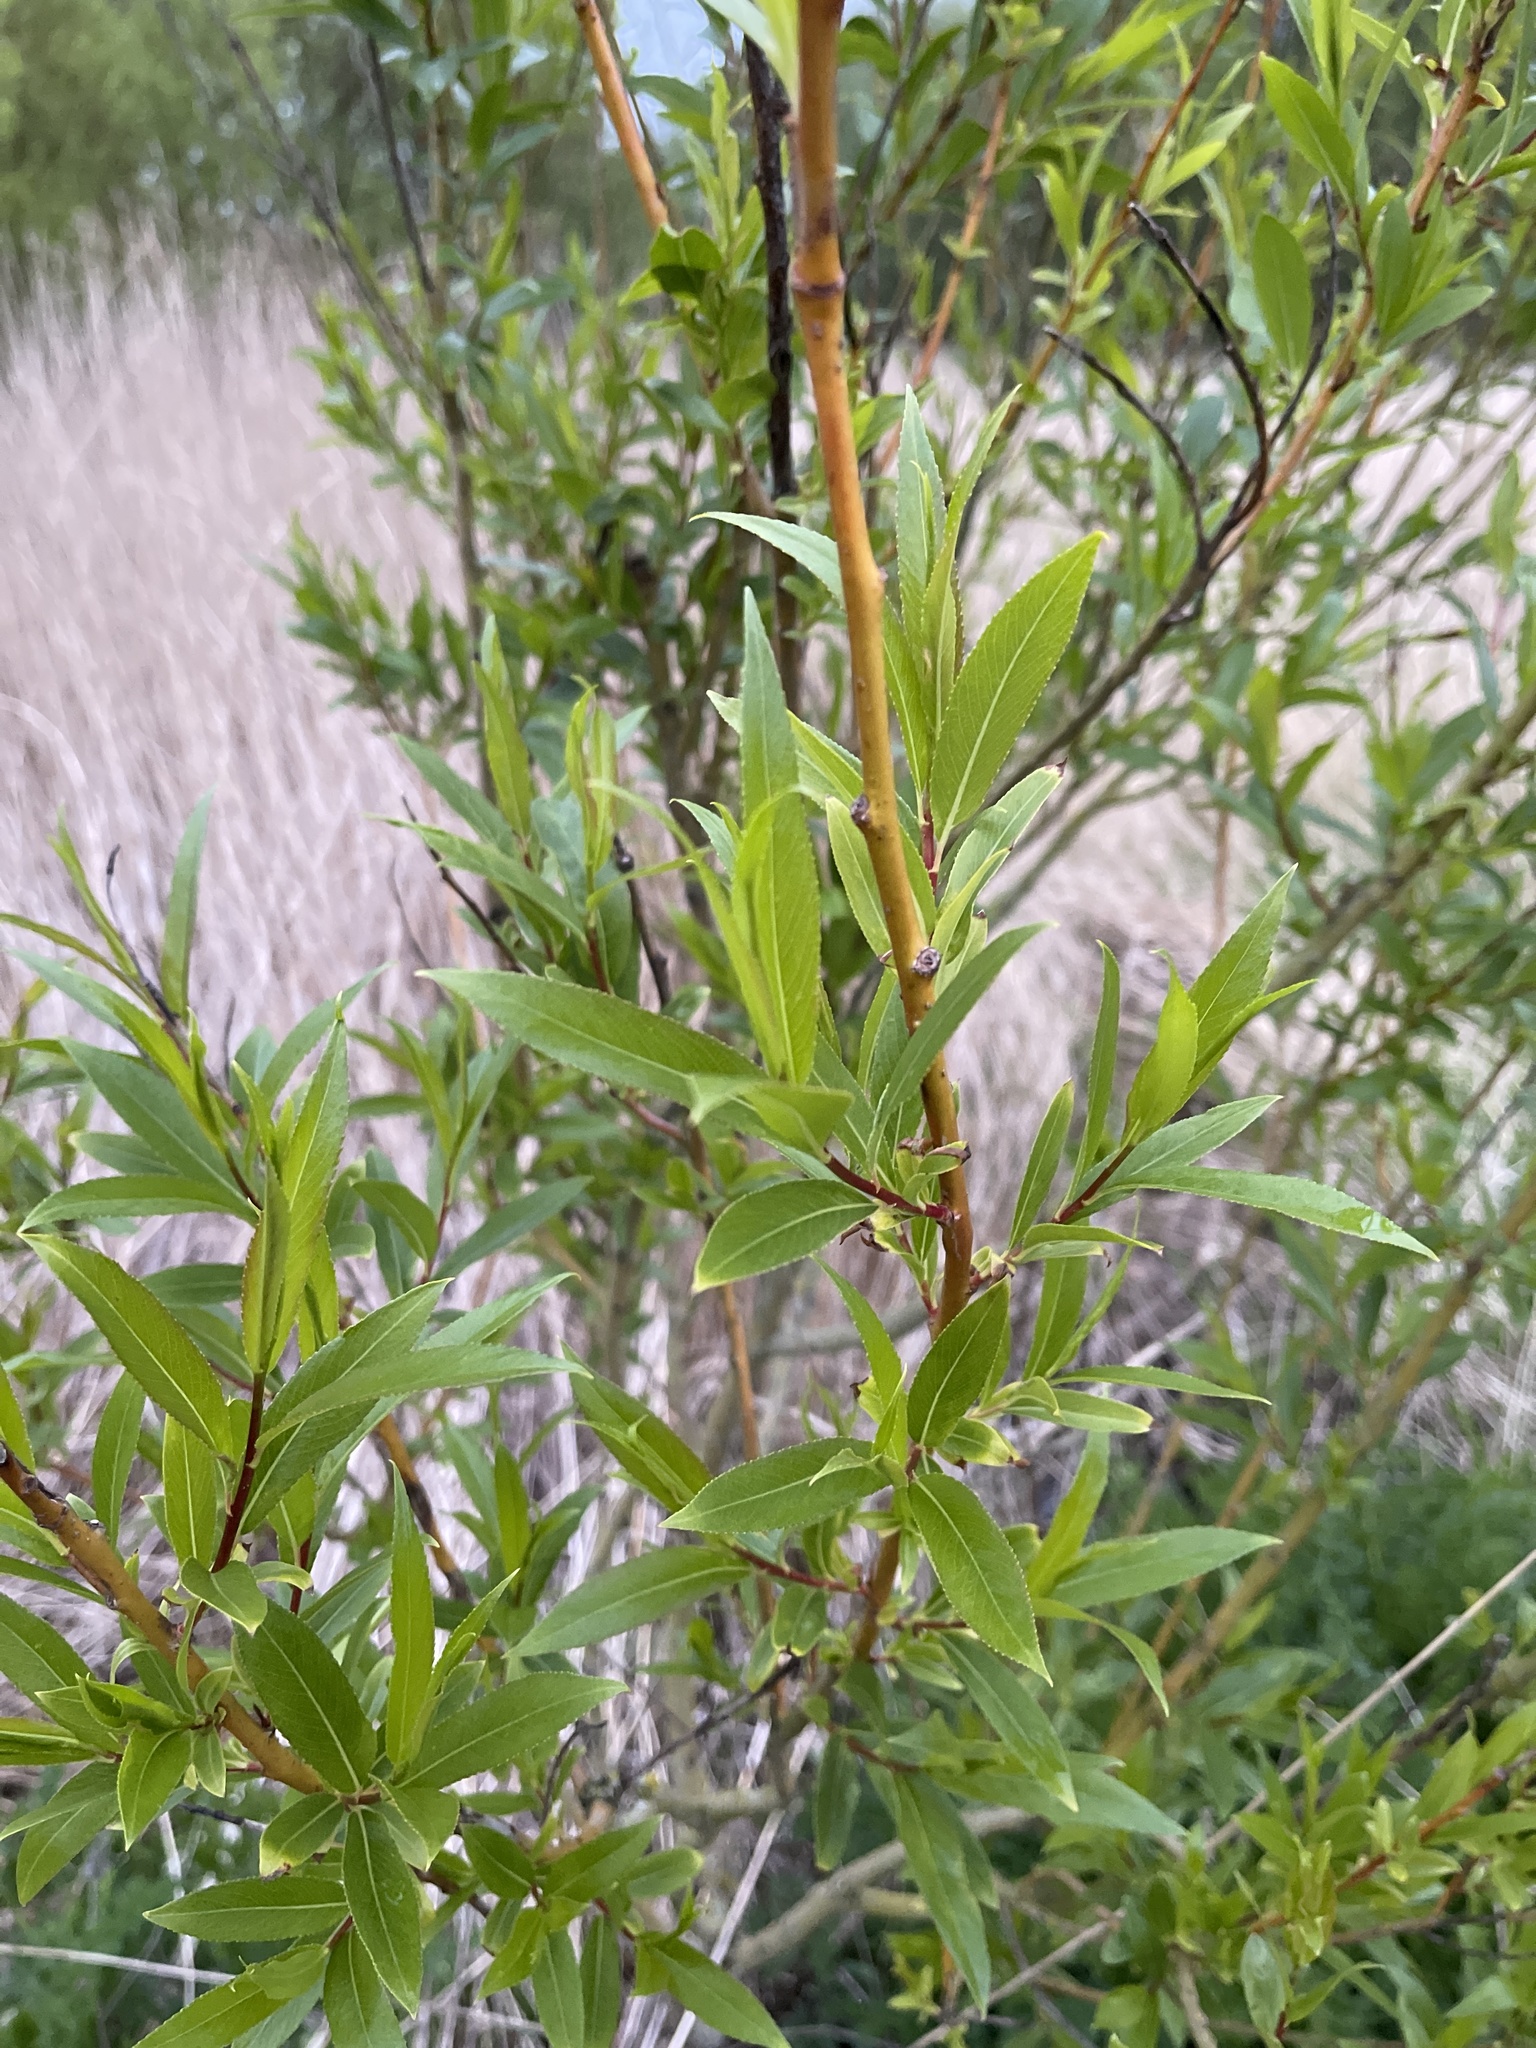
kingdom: Plantae
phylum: Tracheophyta
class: Magnoliopsida
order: Malpighiales
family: Salicaceae
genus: Salix
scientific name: Salix fragilis
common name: Crack willow
